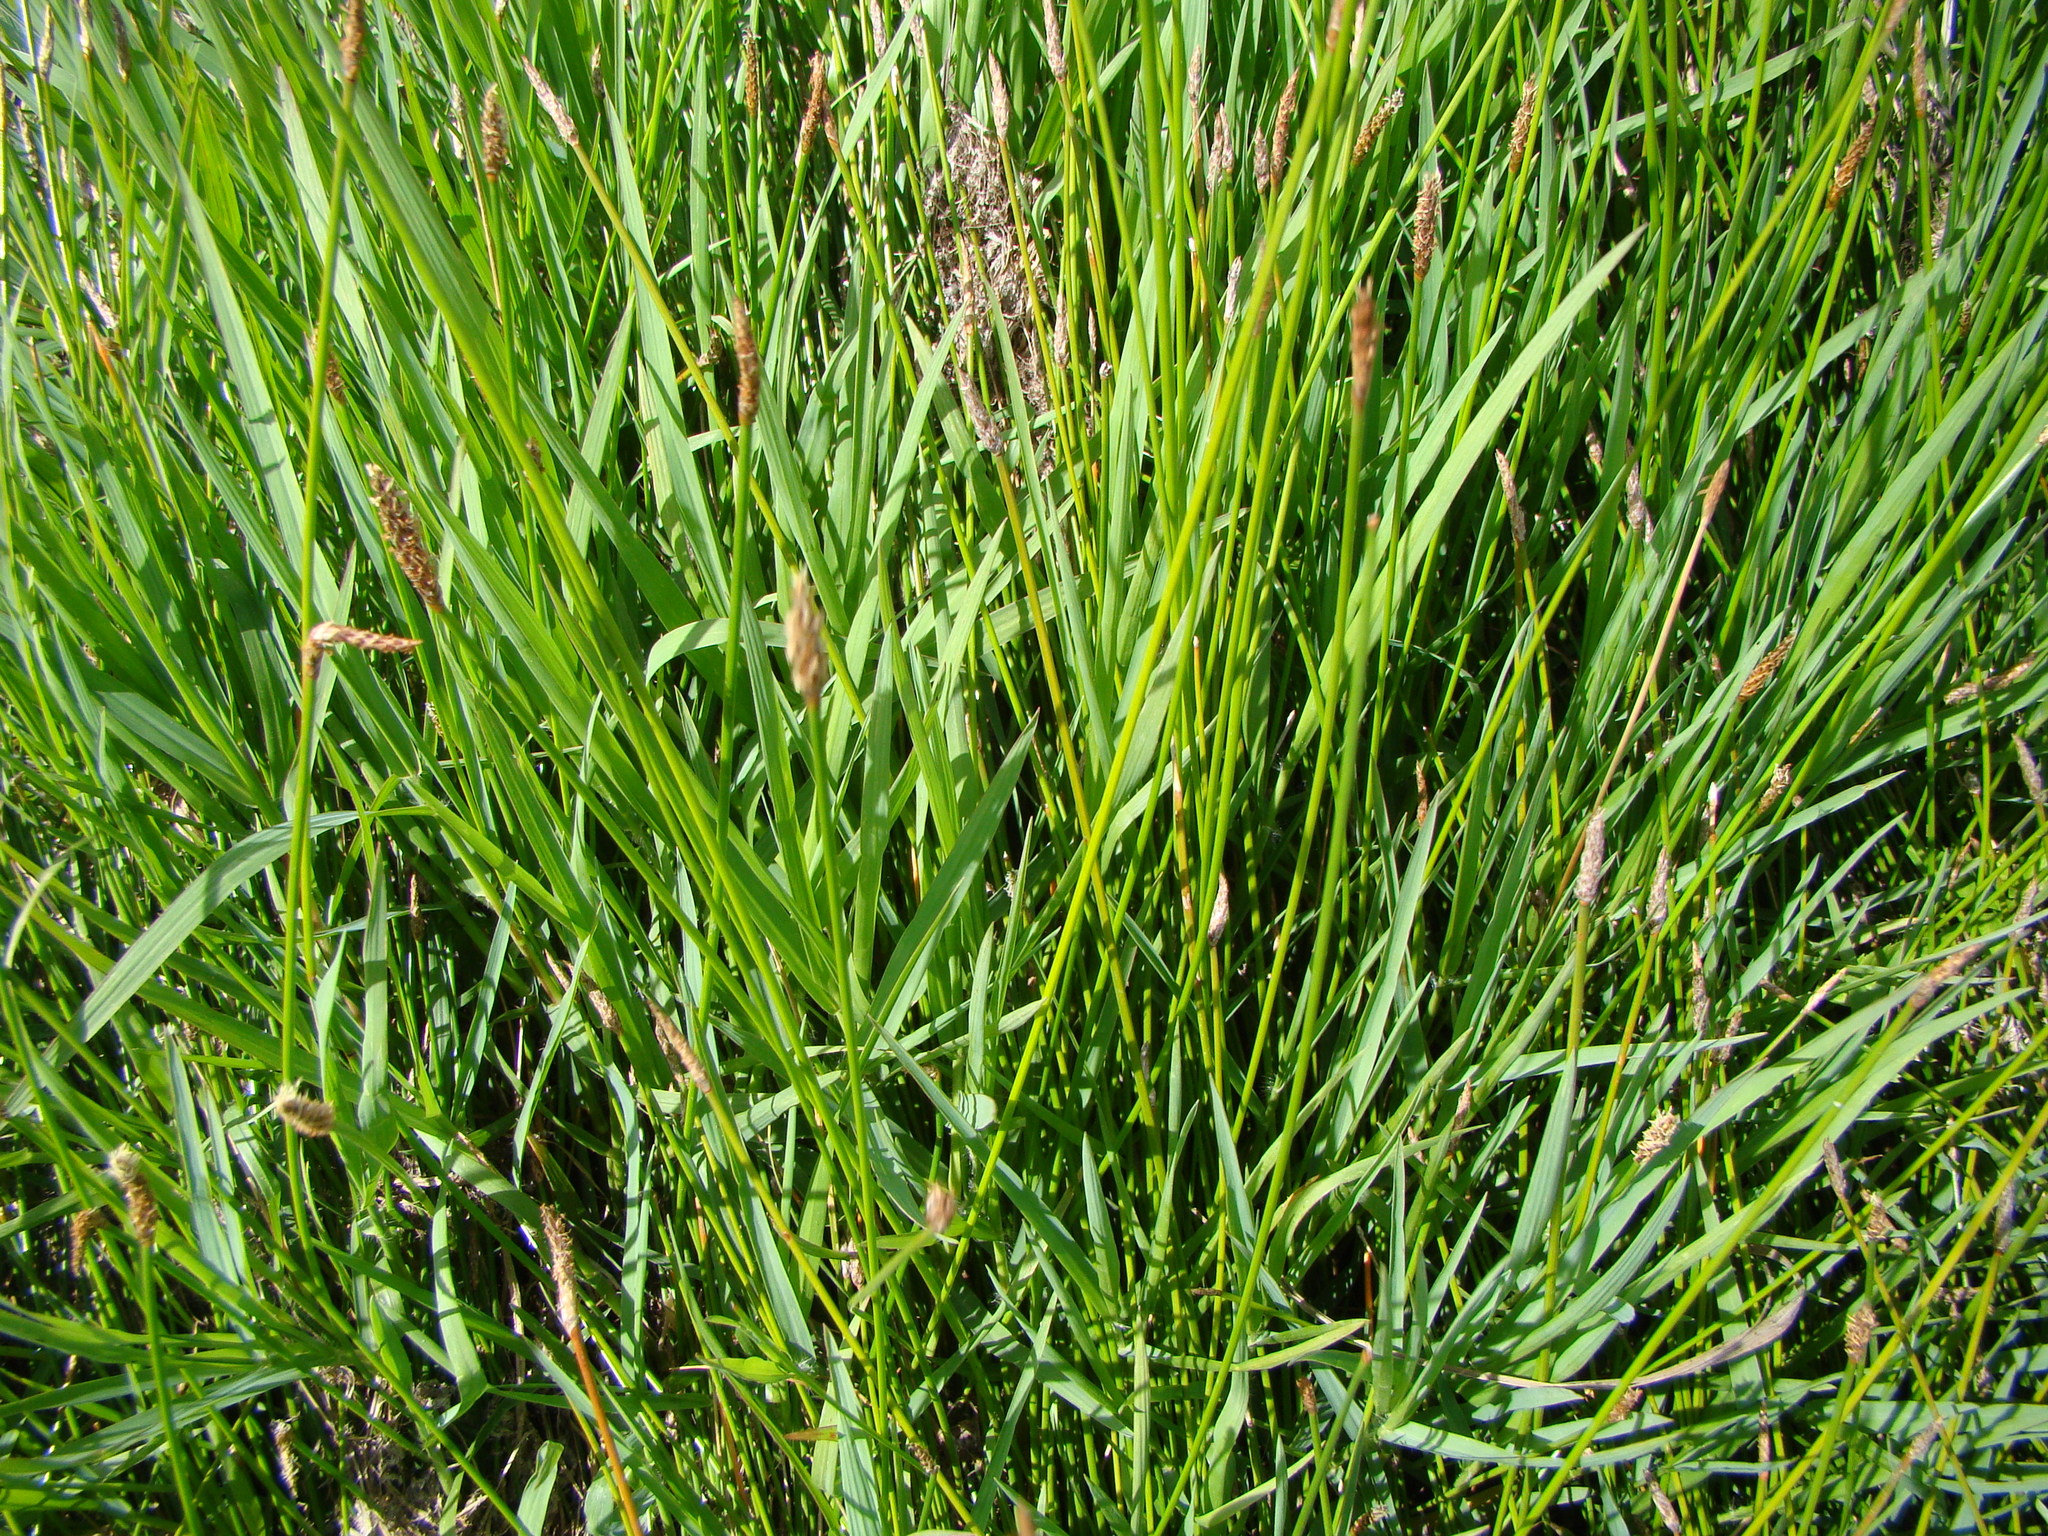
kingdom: Plantae
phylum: Tracheophyta
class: Liliopsida
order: Poales
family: Cyperaceae
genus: Eleocharis
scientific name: Eleocharis acuta
